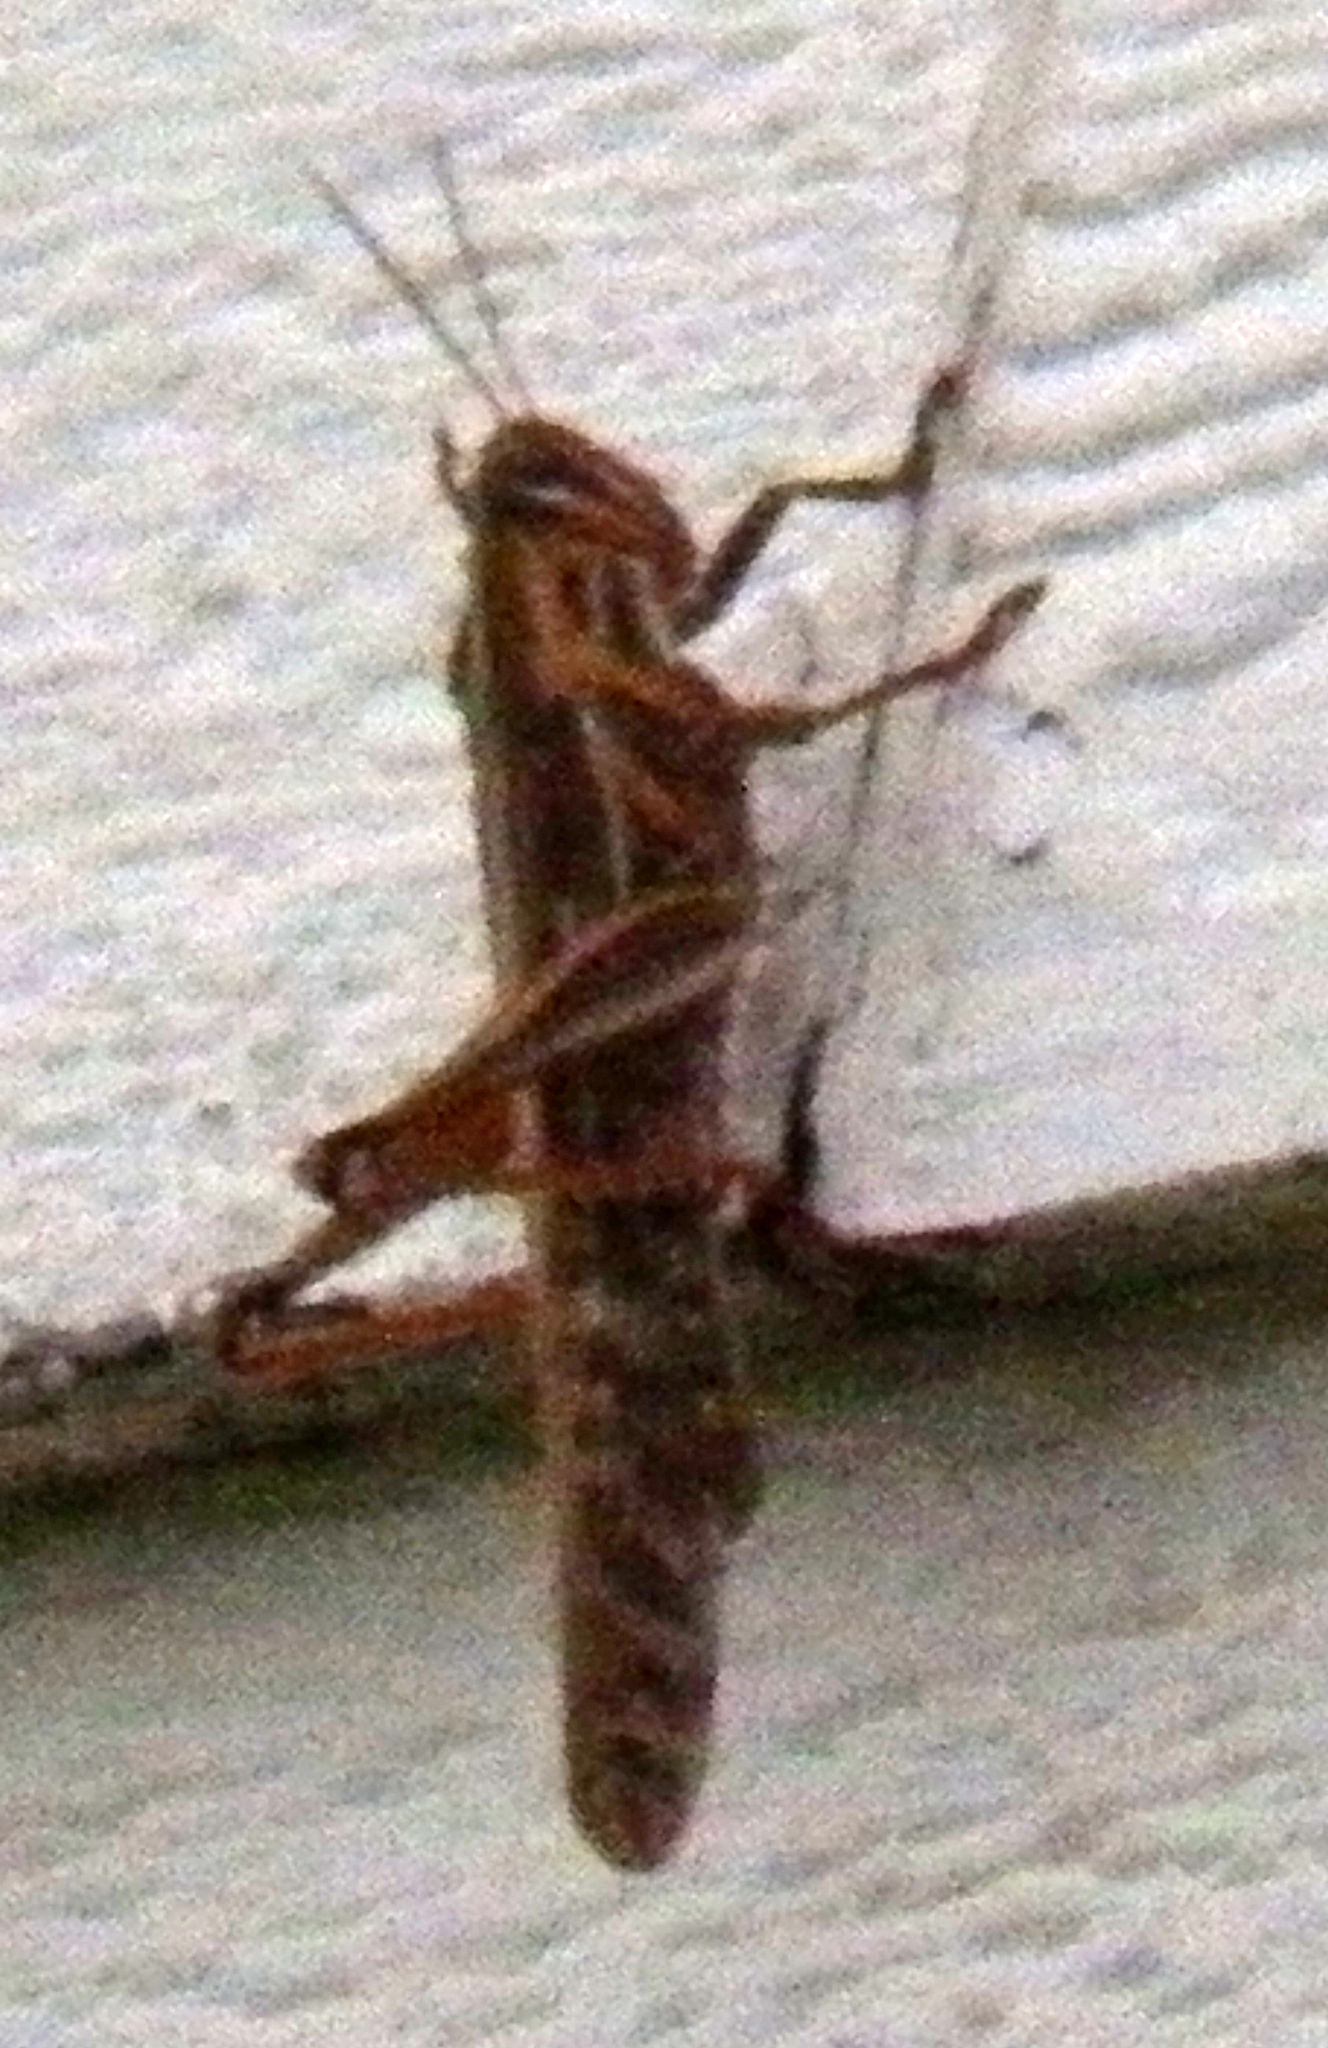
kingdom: Animalia
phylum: Arthropoda
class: Insecta
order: Orthoptera
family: Acrididae
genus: Schistocerca
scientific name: Schistocerca americana
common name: American bird locust
